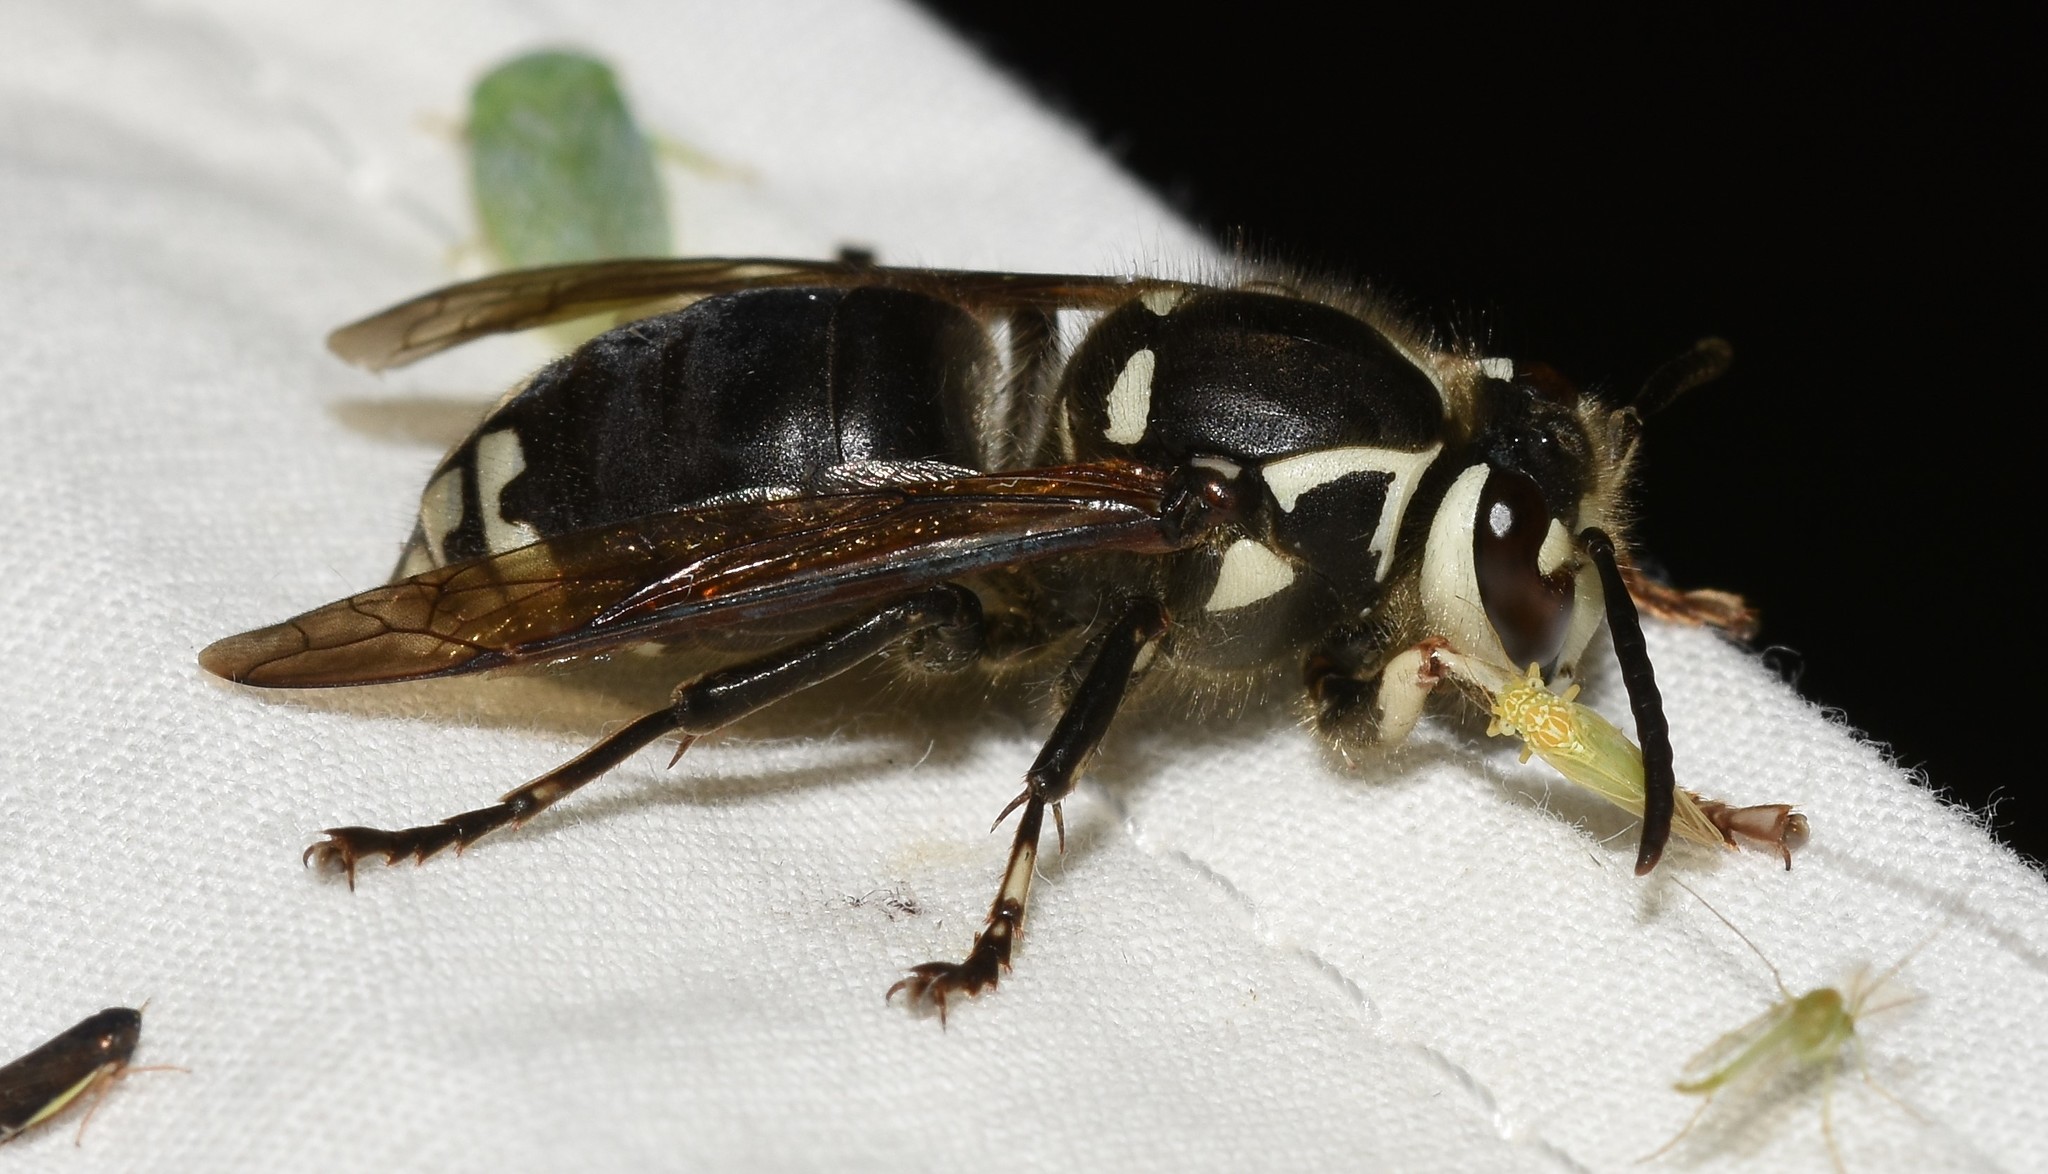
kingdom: Animalia
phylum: Arthropoda
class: Insecta
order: Hymenoptera
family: Vespidae
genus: Dolichovespula
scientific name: Dolichovespula maculata
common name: Bald-faced hornet
